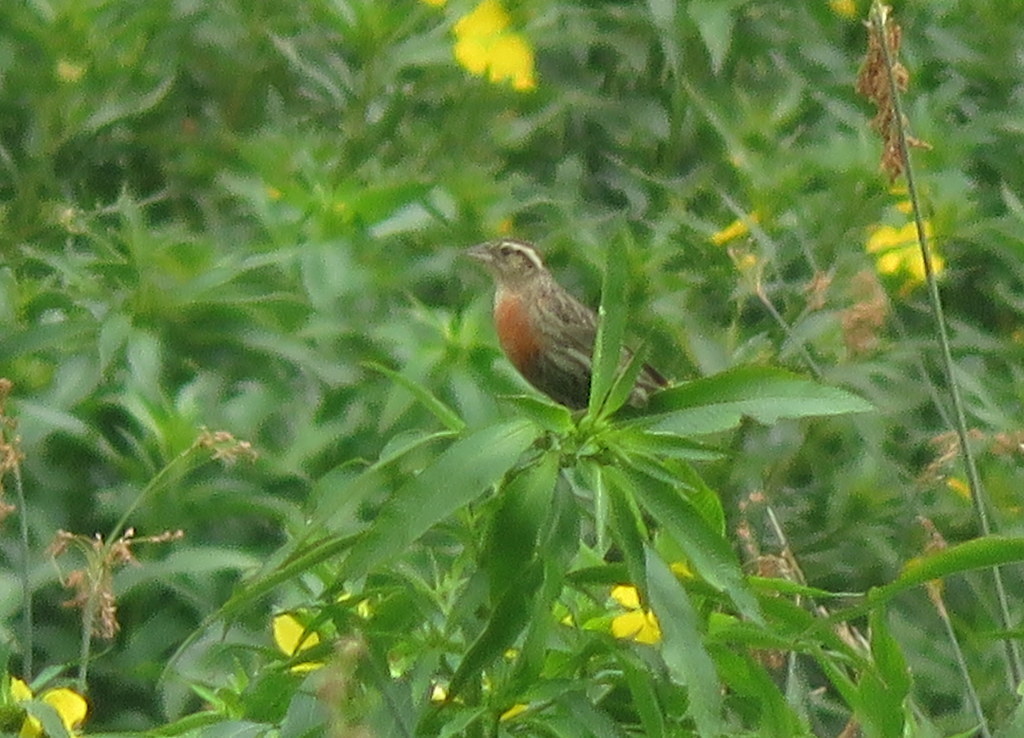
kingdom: Animalia
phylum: Chordata
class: Aves
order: Passeriformes
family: Icteridae
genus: Sturnella
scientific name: Sturnella superciliaris
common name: White-browed blackbird
